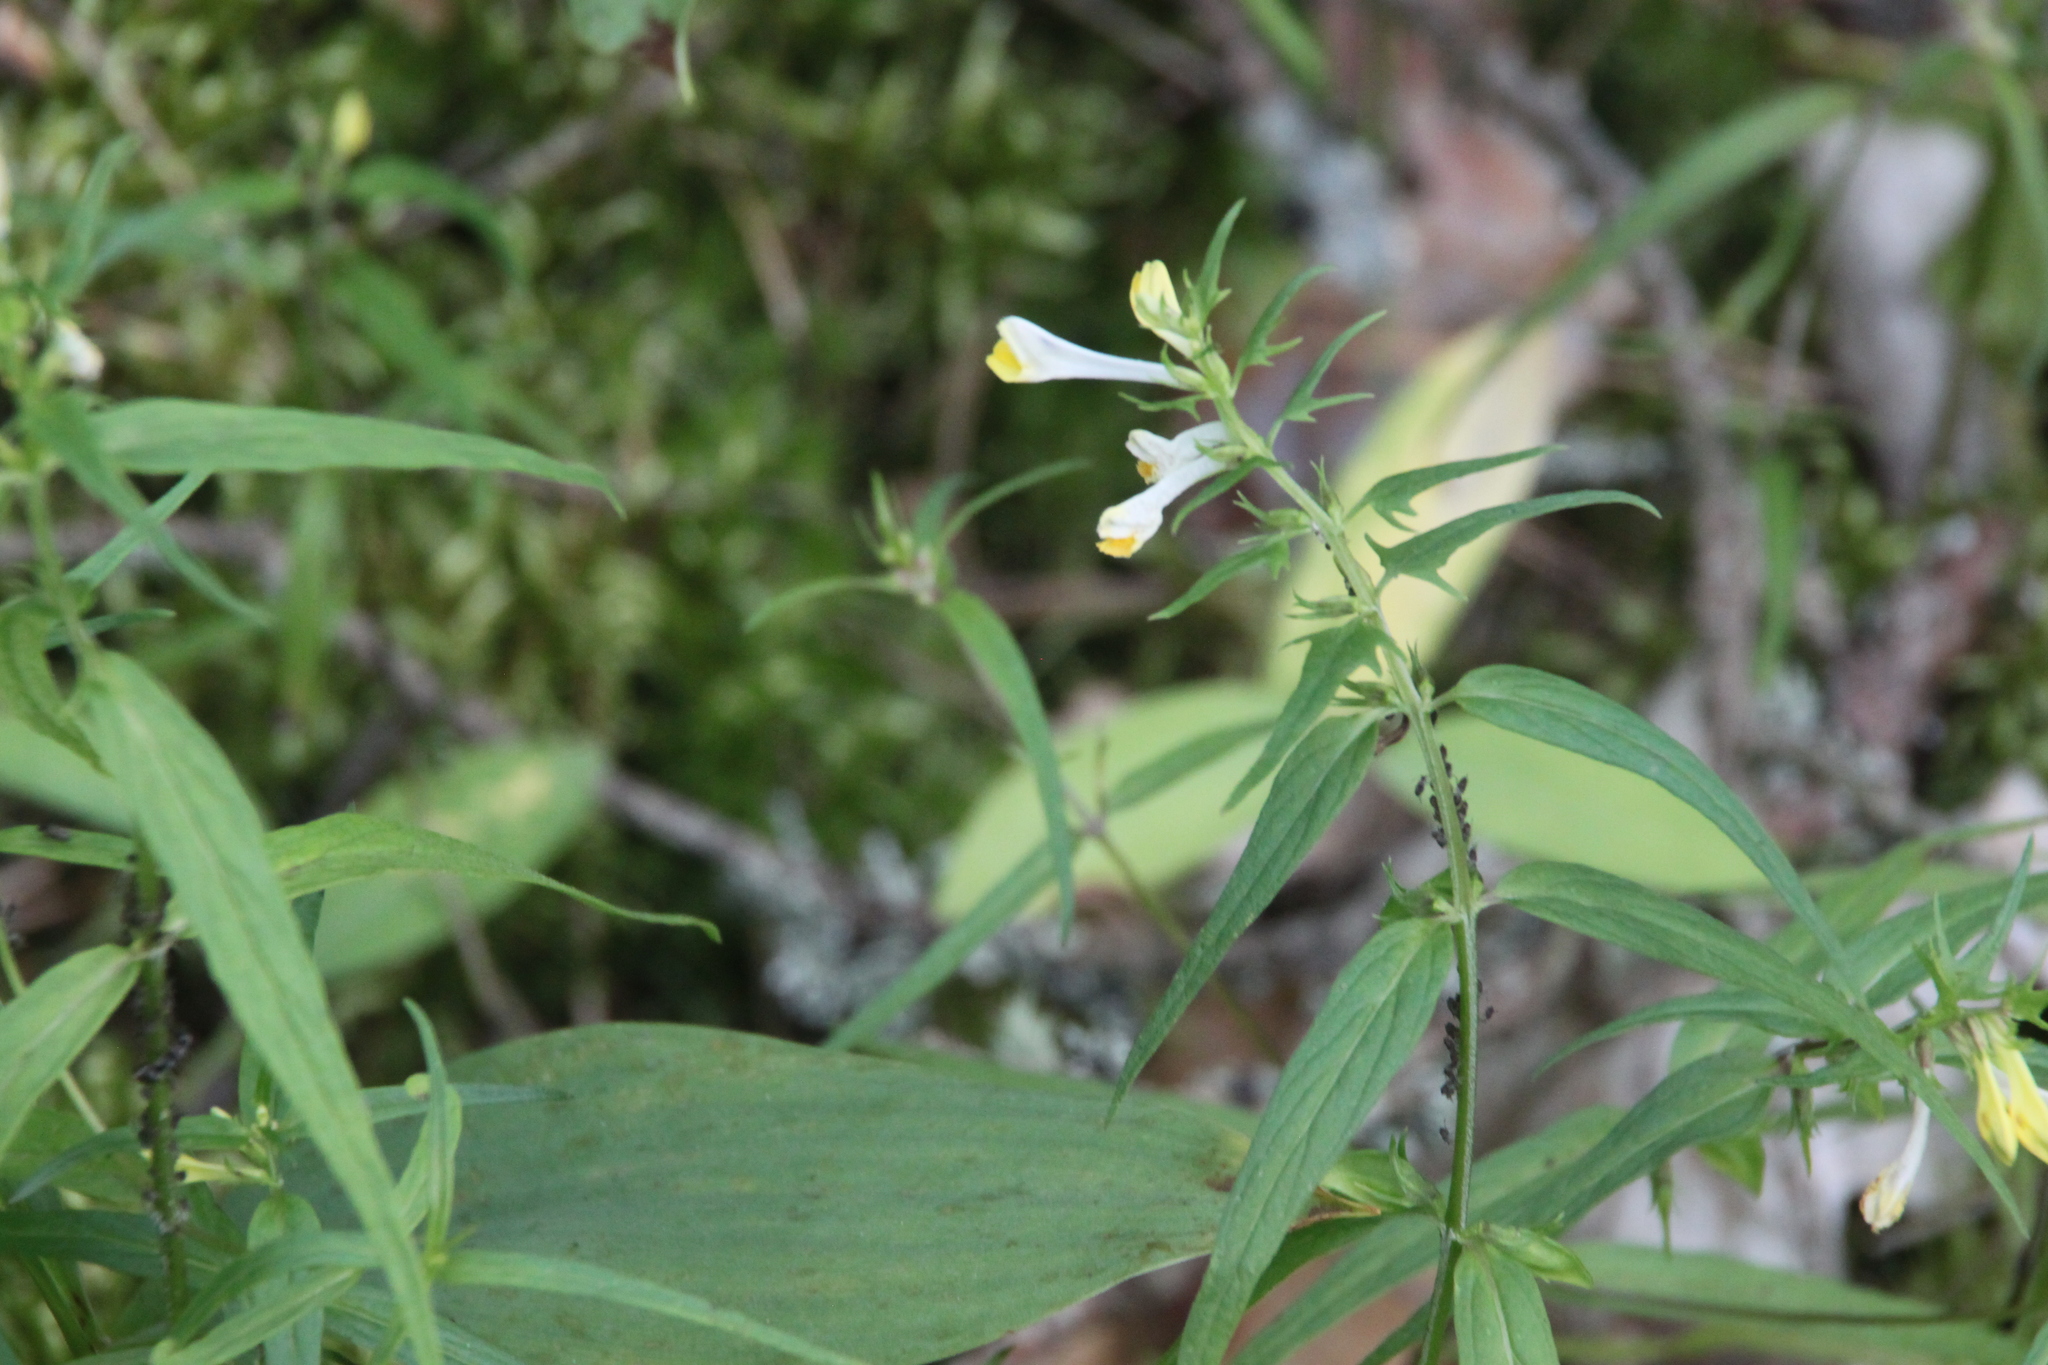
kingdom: Plantae
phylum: Tracheophyta
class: Magnoliopsida
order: Lamiales
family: Orobanchaceae
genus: Melampyrum
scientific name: Melampyrum pratense
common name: Common cow-wheat
